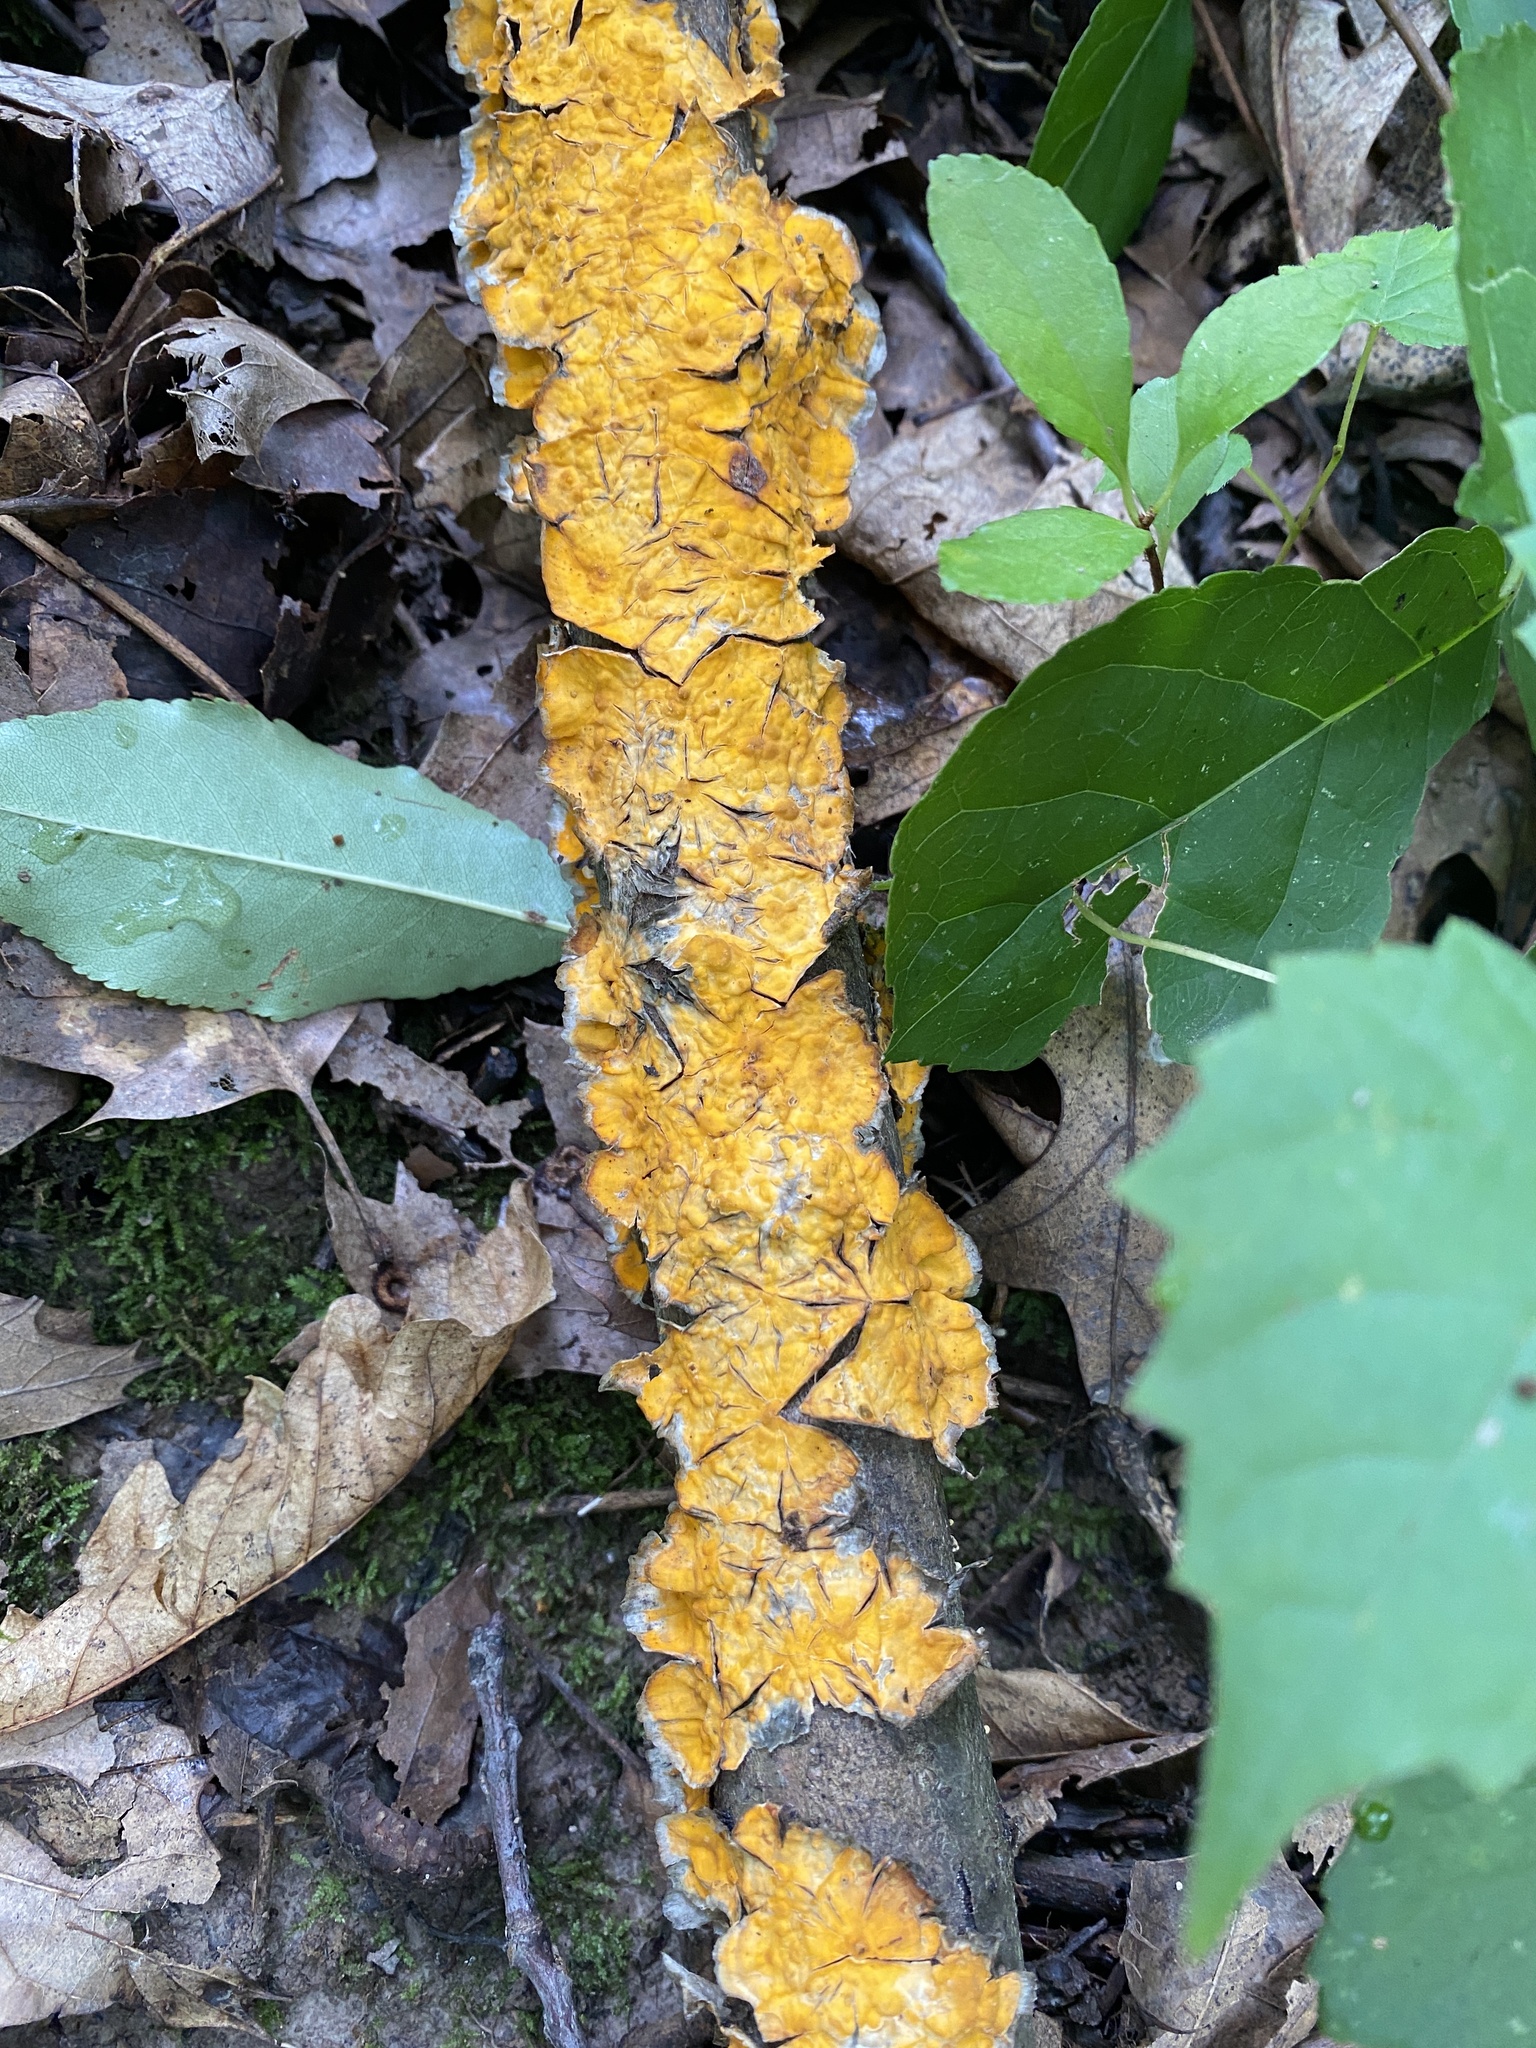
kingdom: Fungi
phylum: Basidiomycota
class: Agaricomycetes
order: Russulales
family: Stereaceae
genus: Stereum
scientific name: Stereum complicatum
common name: Crowded parchment
